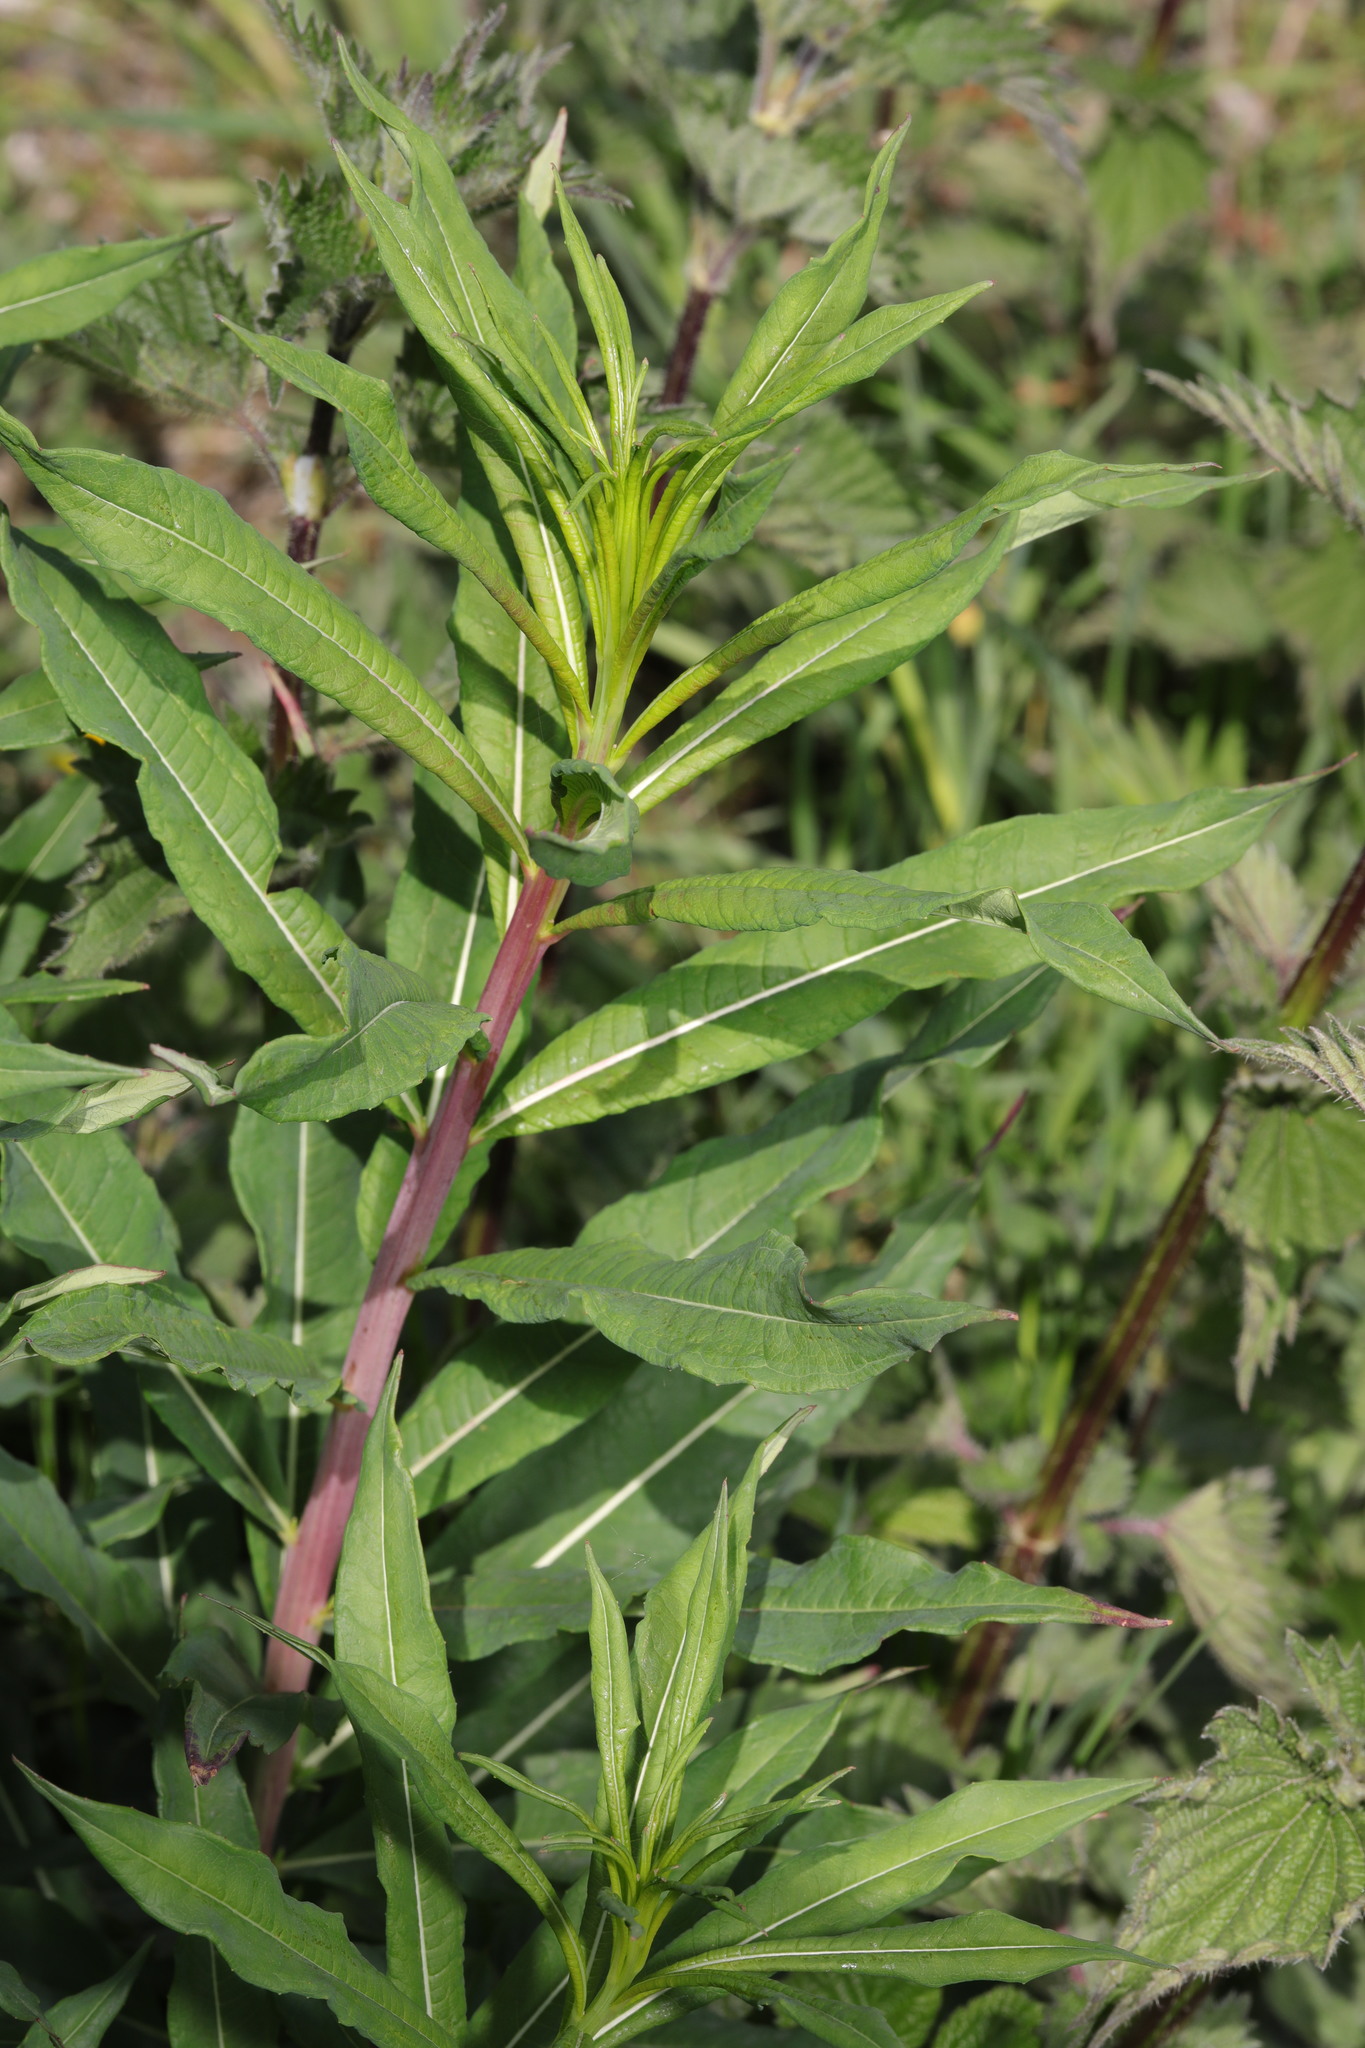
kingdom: Plantae
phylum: Tracheophyta
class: Magnoliopsida
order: Myrtales
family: Onagraceae
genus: Chamaenerion
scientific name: Chamaenerion angustifolium
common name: Fireweed
